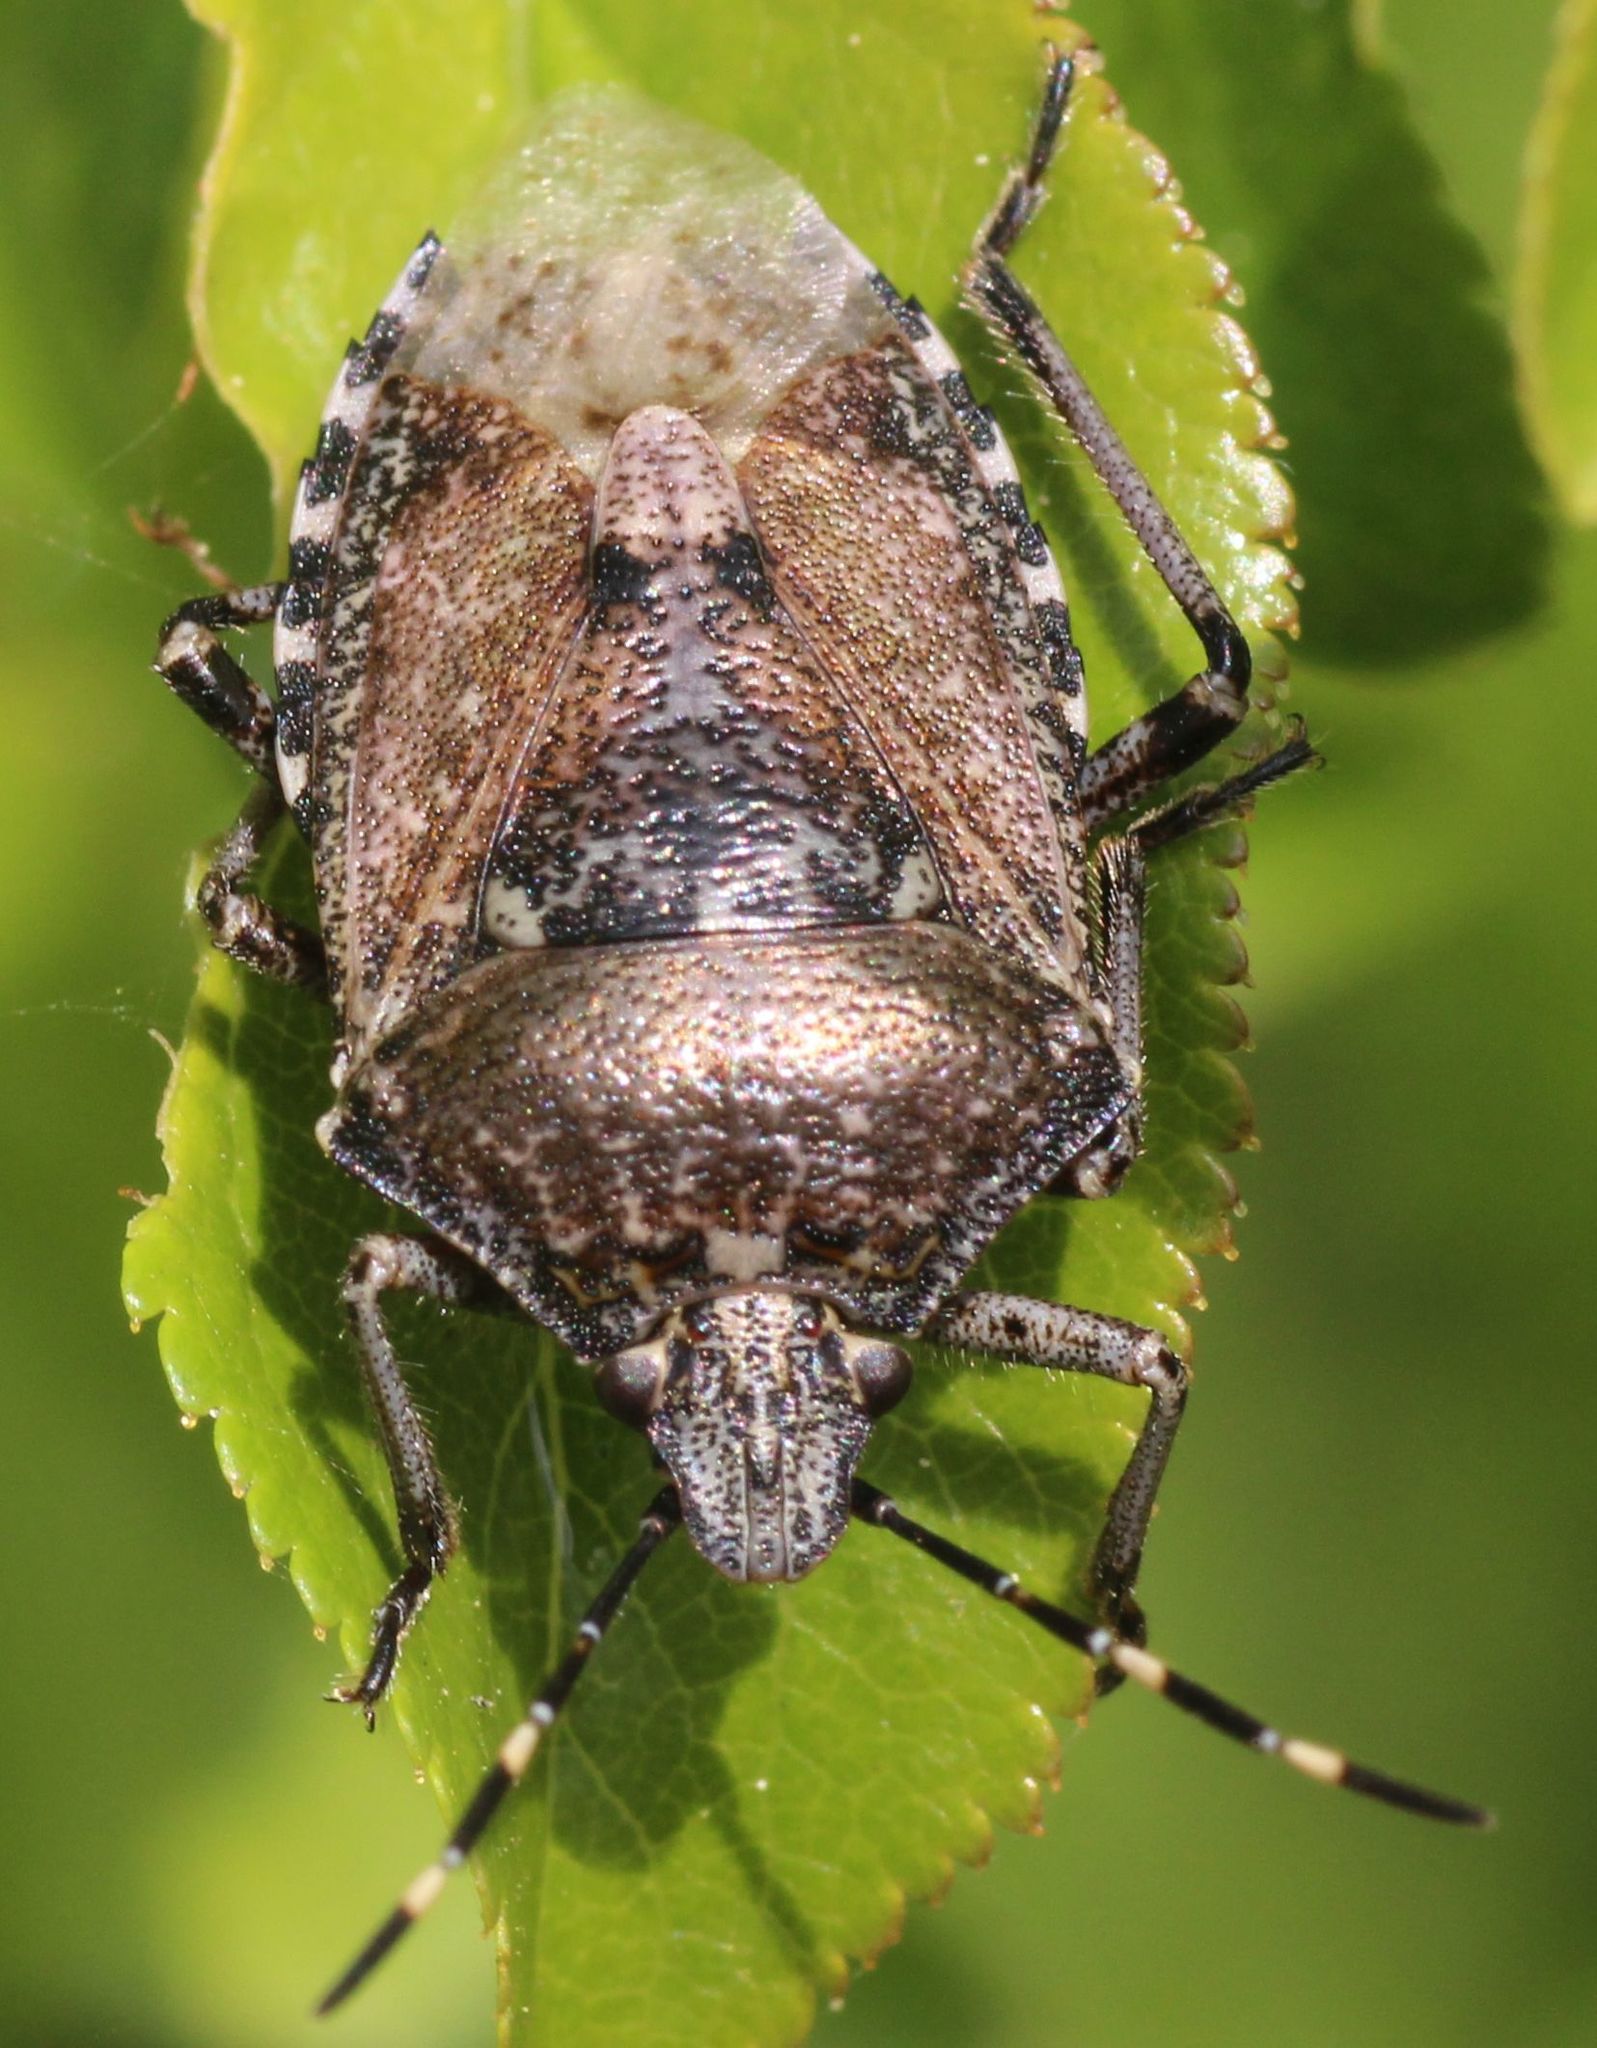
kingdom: Animalia
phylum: Arthropoda
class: Insecta
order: Hemiptera
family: Pentatomidae
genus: Rhaphigaster
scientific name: Rhaphigaster nebulosa
